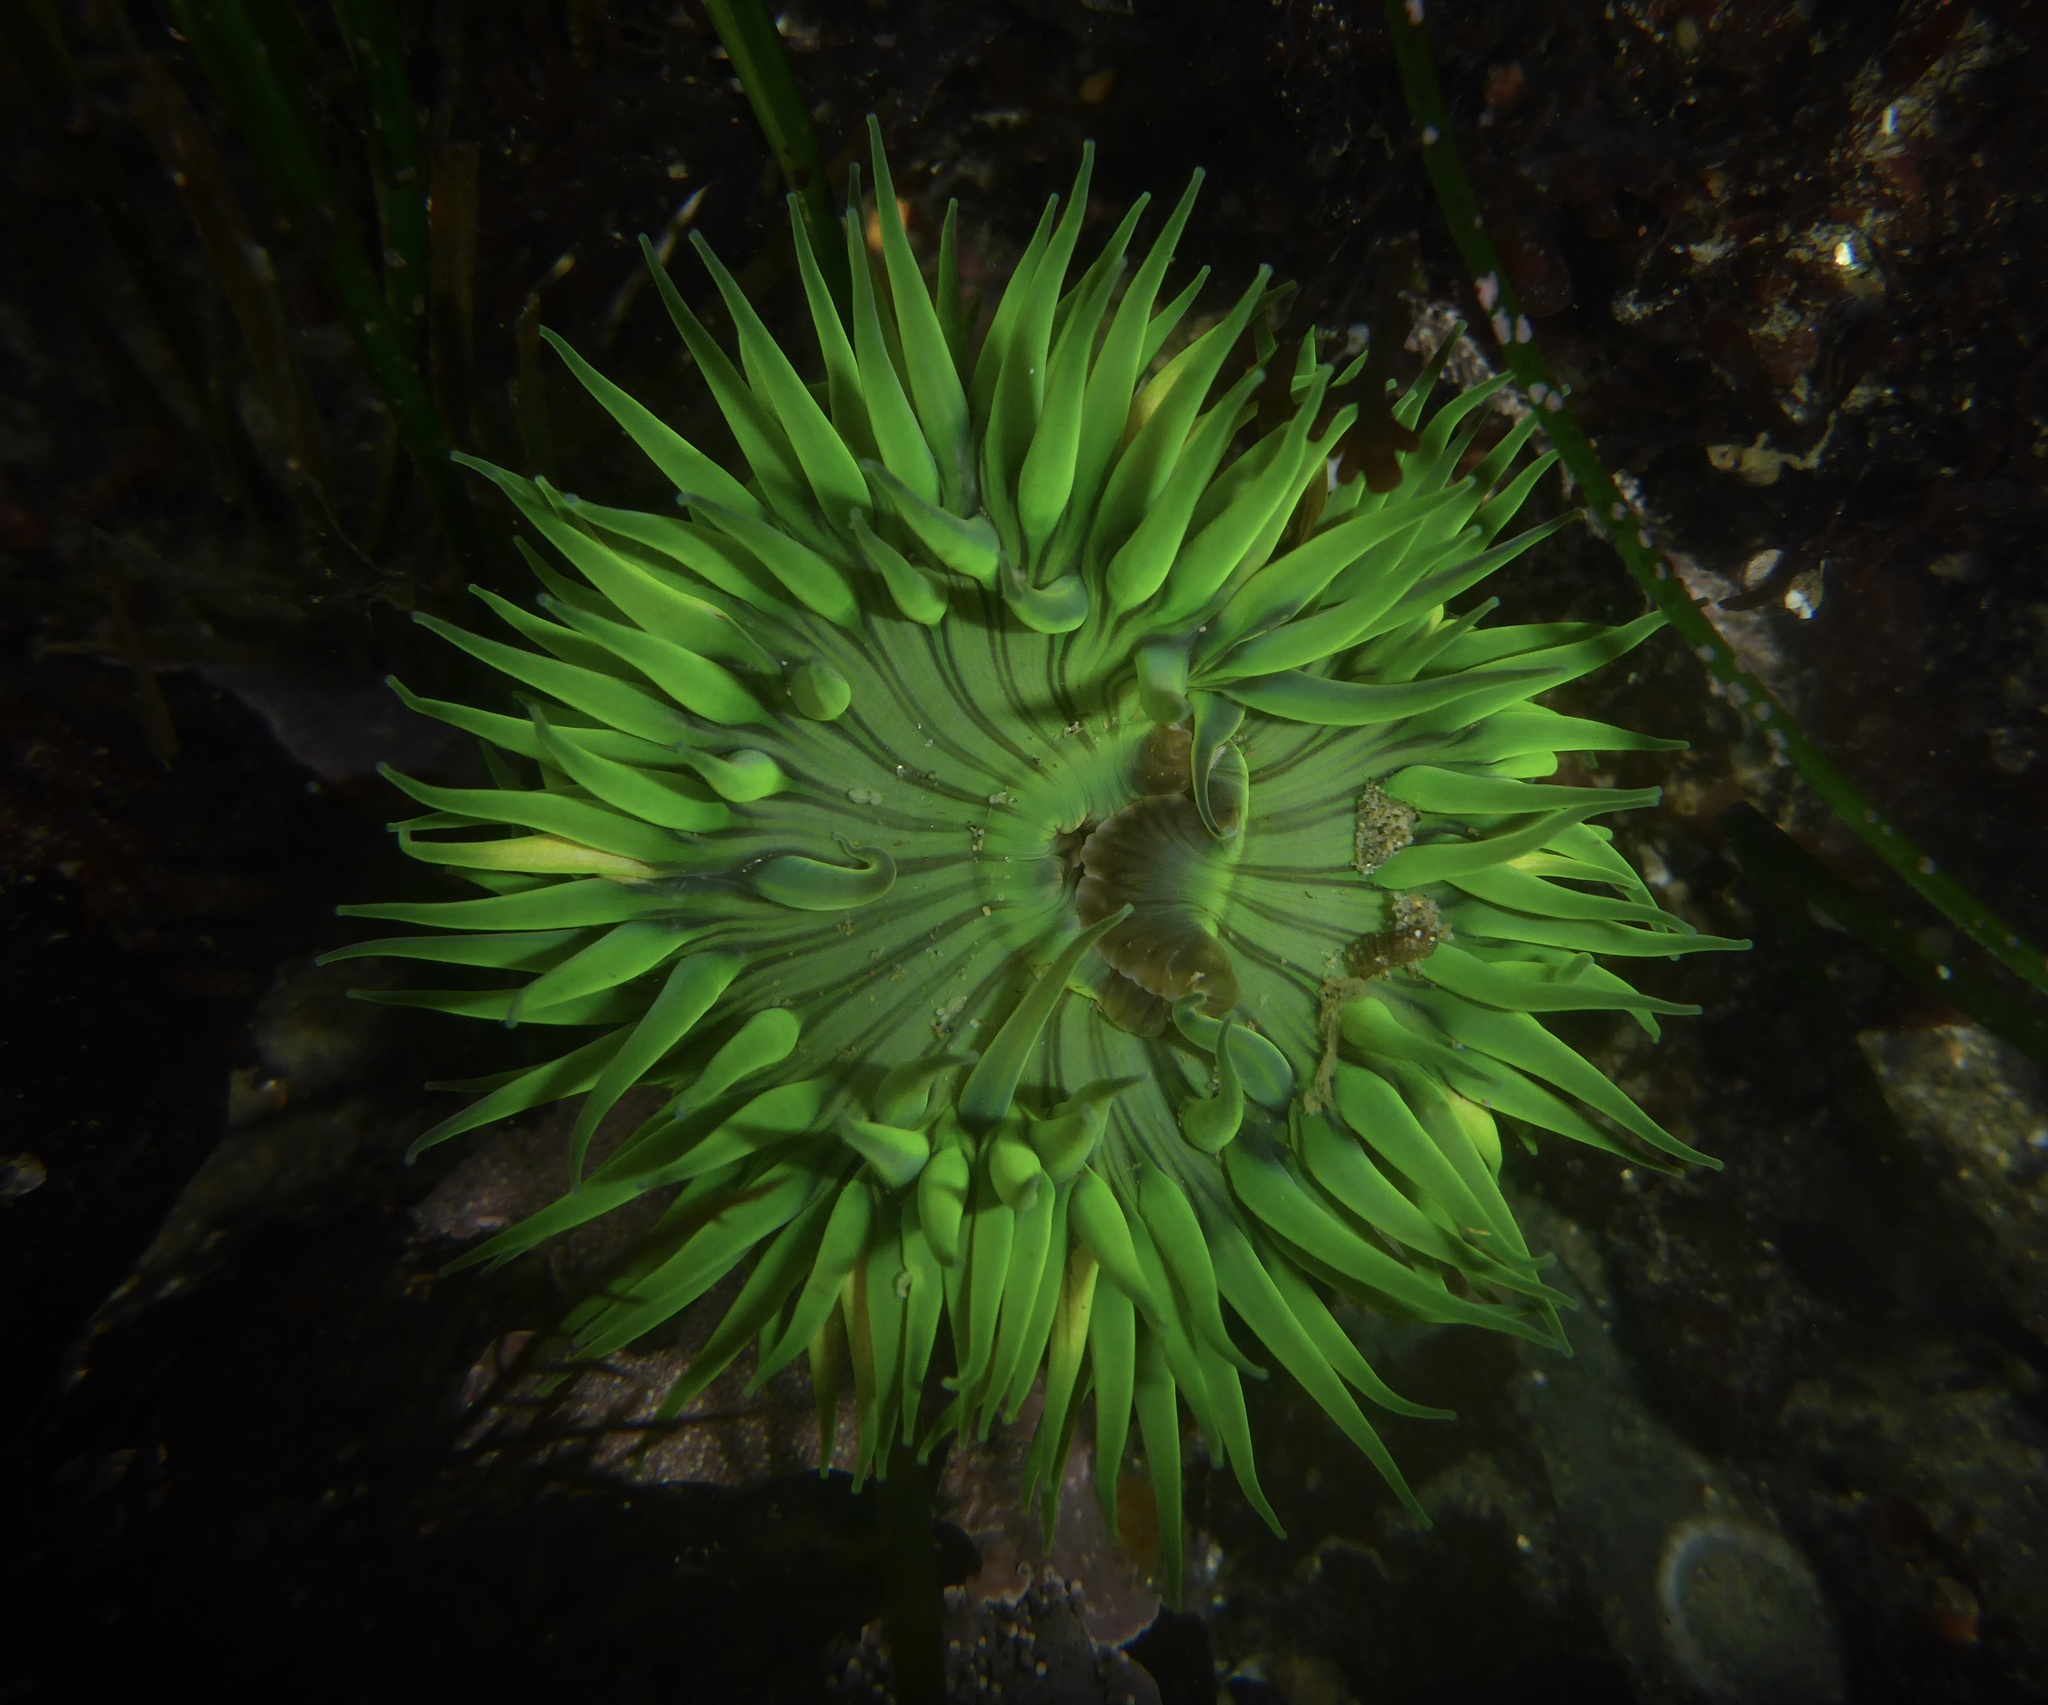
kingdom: Animalia
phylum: Cnidaria
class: Anthozoa
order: Actiniaria
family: Actiniidae
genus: Anthopleura
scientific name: Anthopleura sola
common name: Sun anemone
